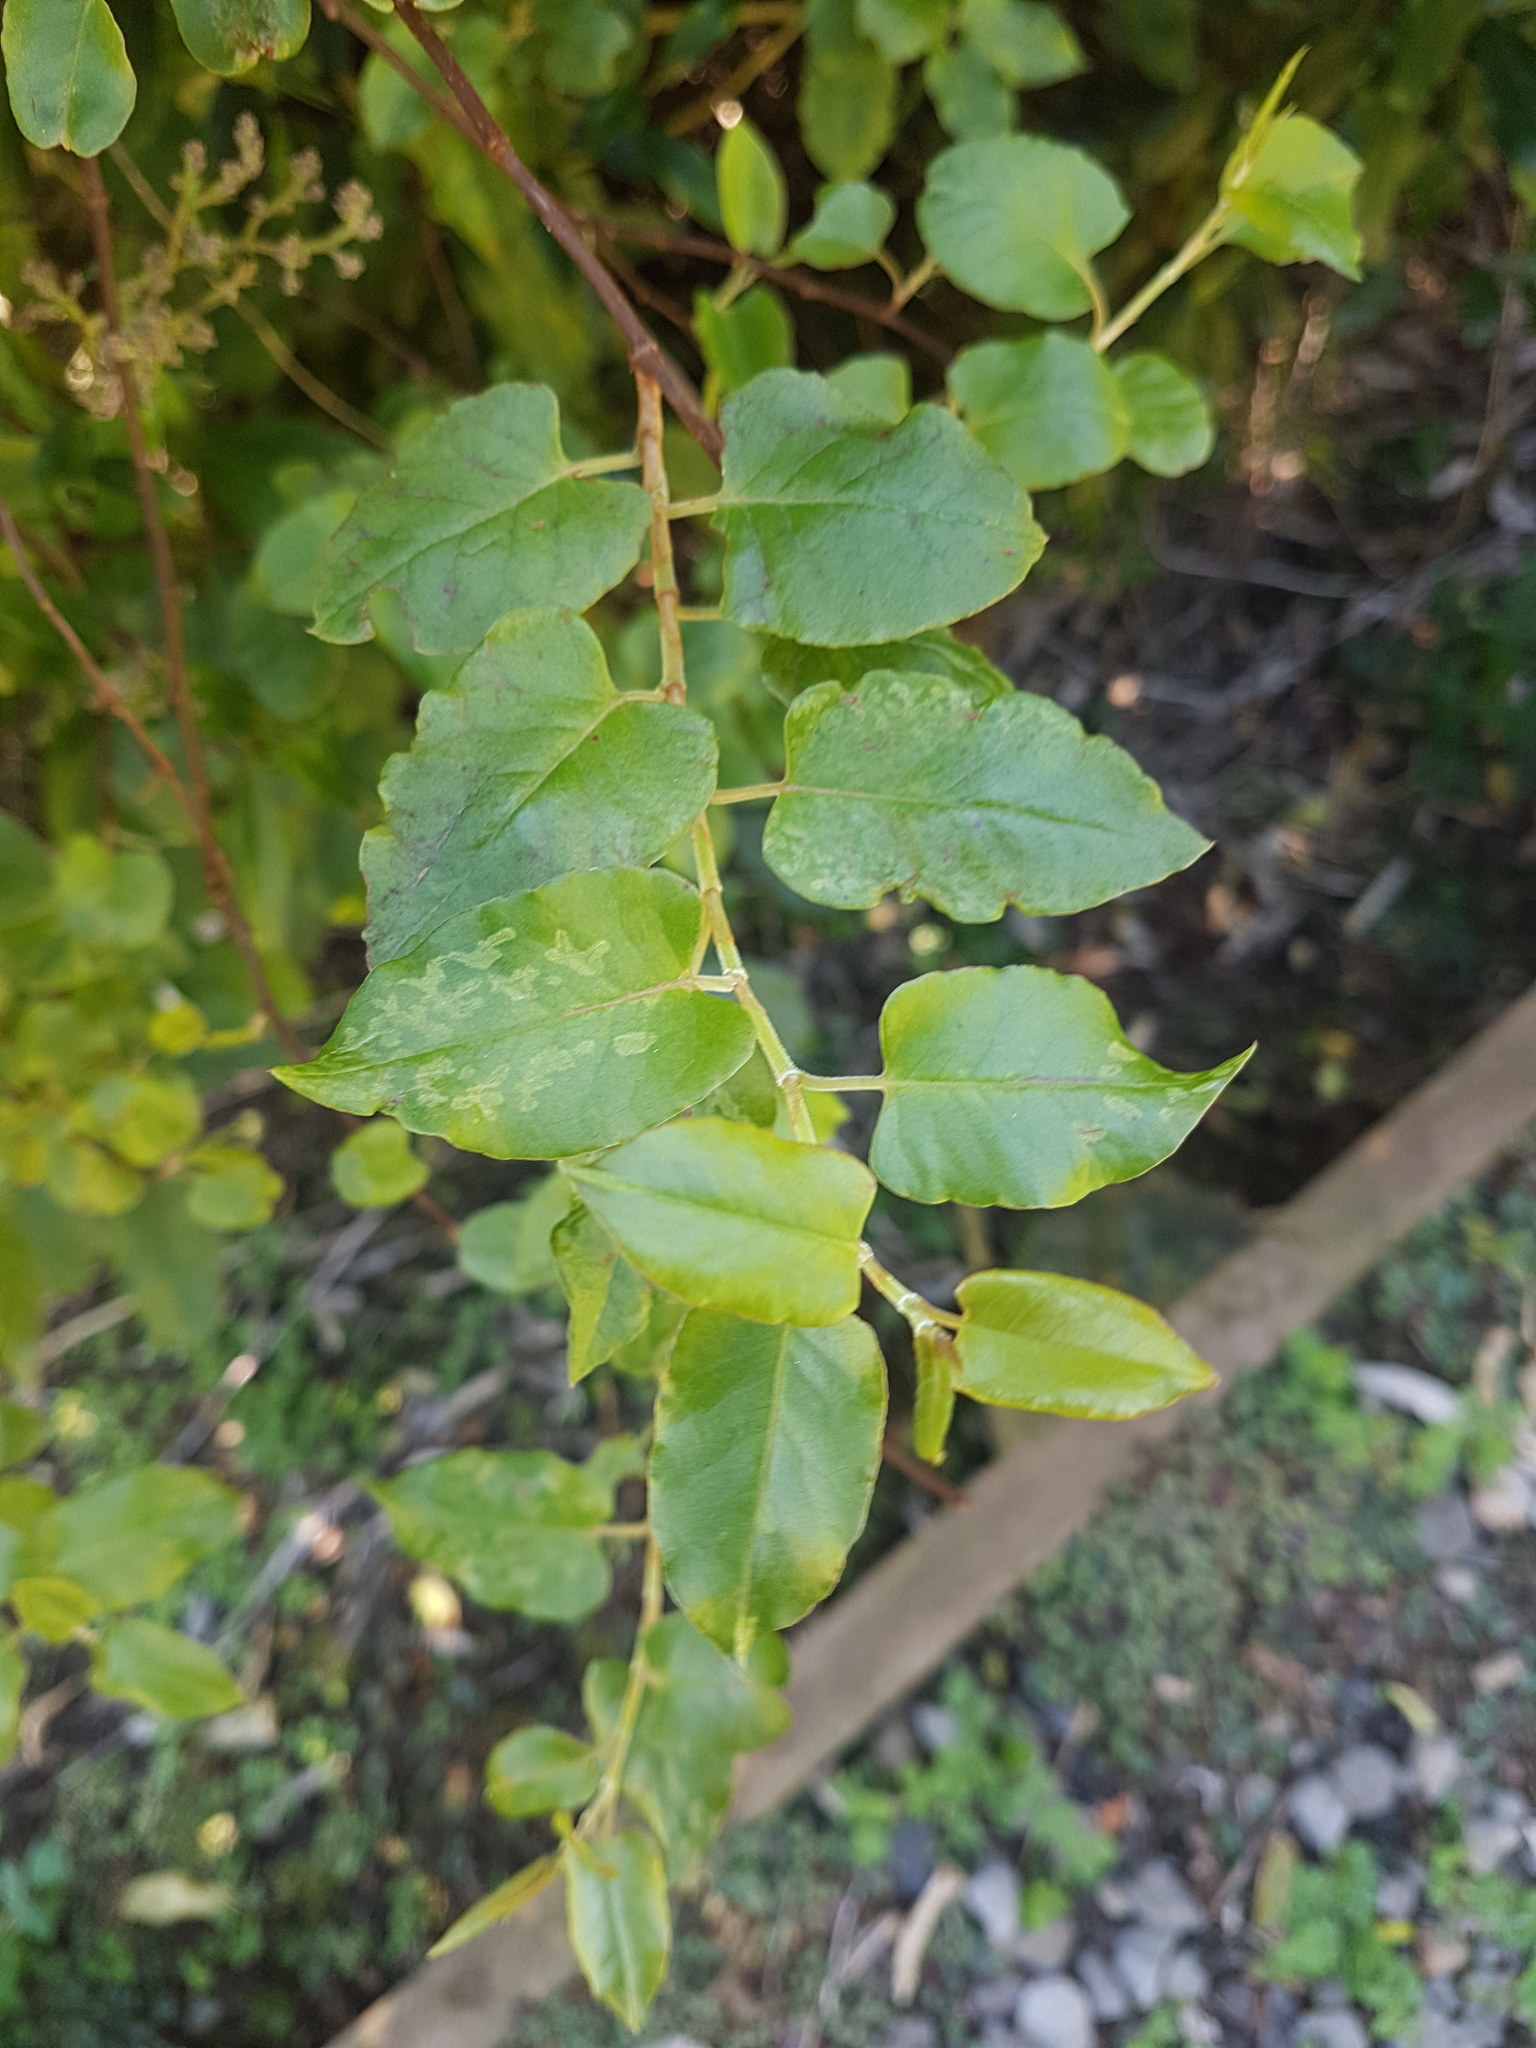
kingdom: Plantae
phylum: Tracheophyta
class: Magnoliopsida
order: Caryophyllales
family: Polygonaceae
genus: Muehlenbeckia
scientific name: Muehlenbeckia australis
